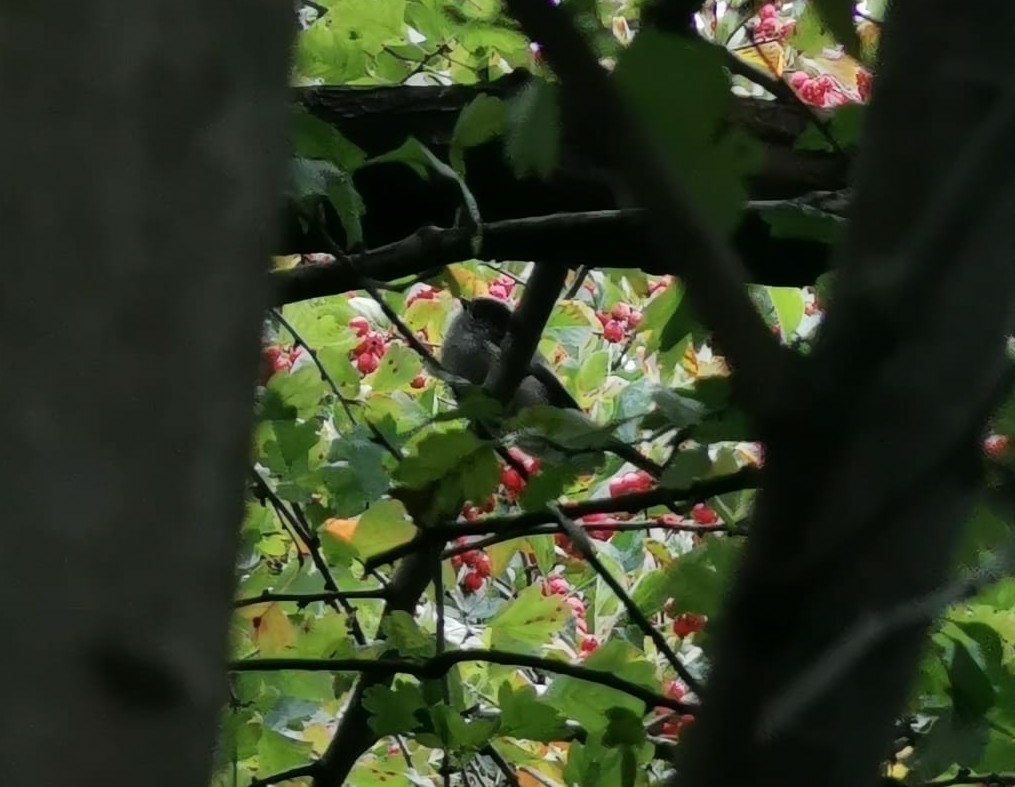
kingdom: Animalia
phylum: Chordata
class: Aves
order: Passeriformes
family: Aegithalidae
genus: Aegithalos
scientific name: Aegithalos caudatus
